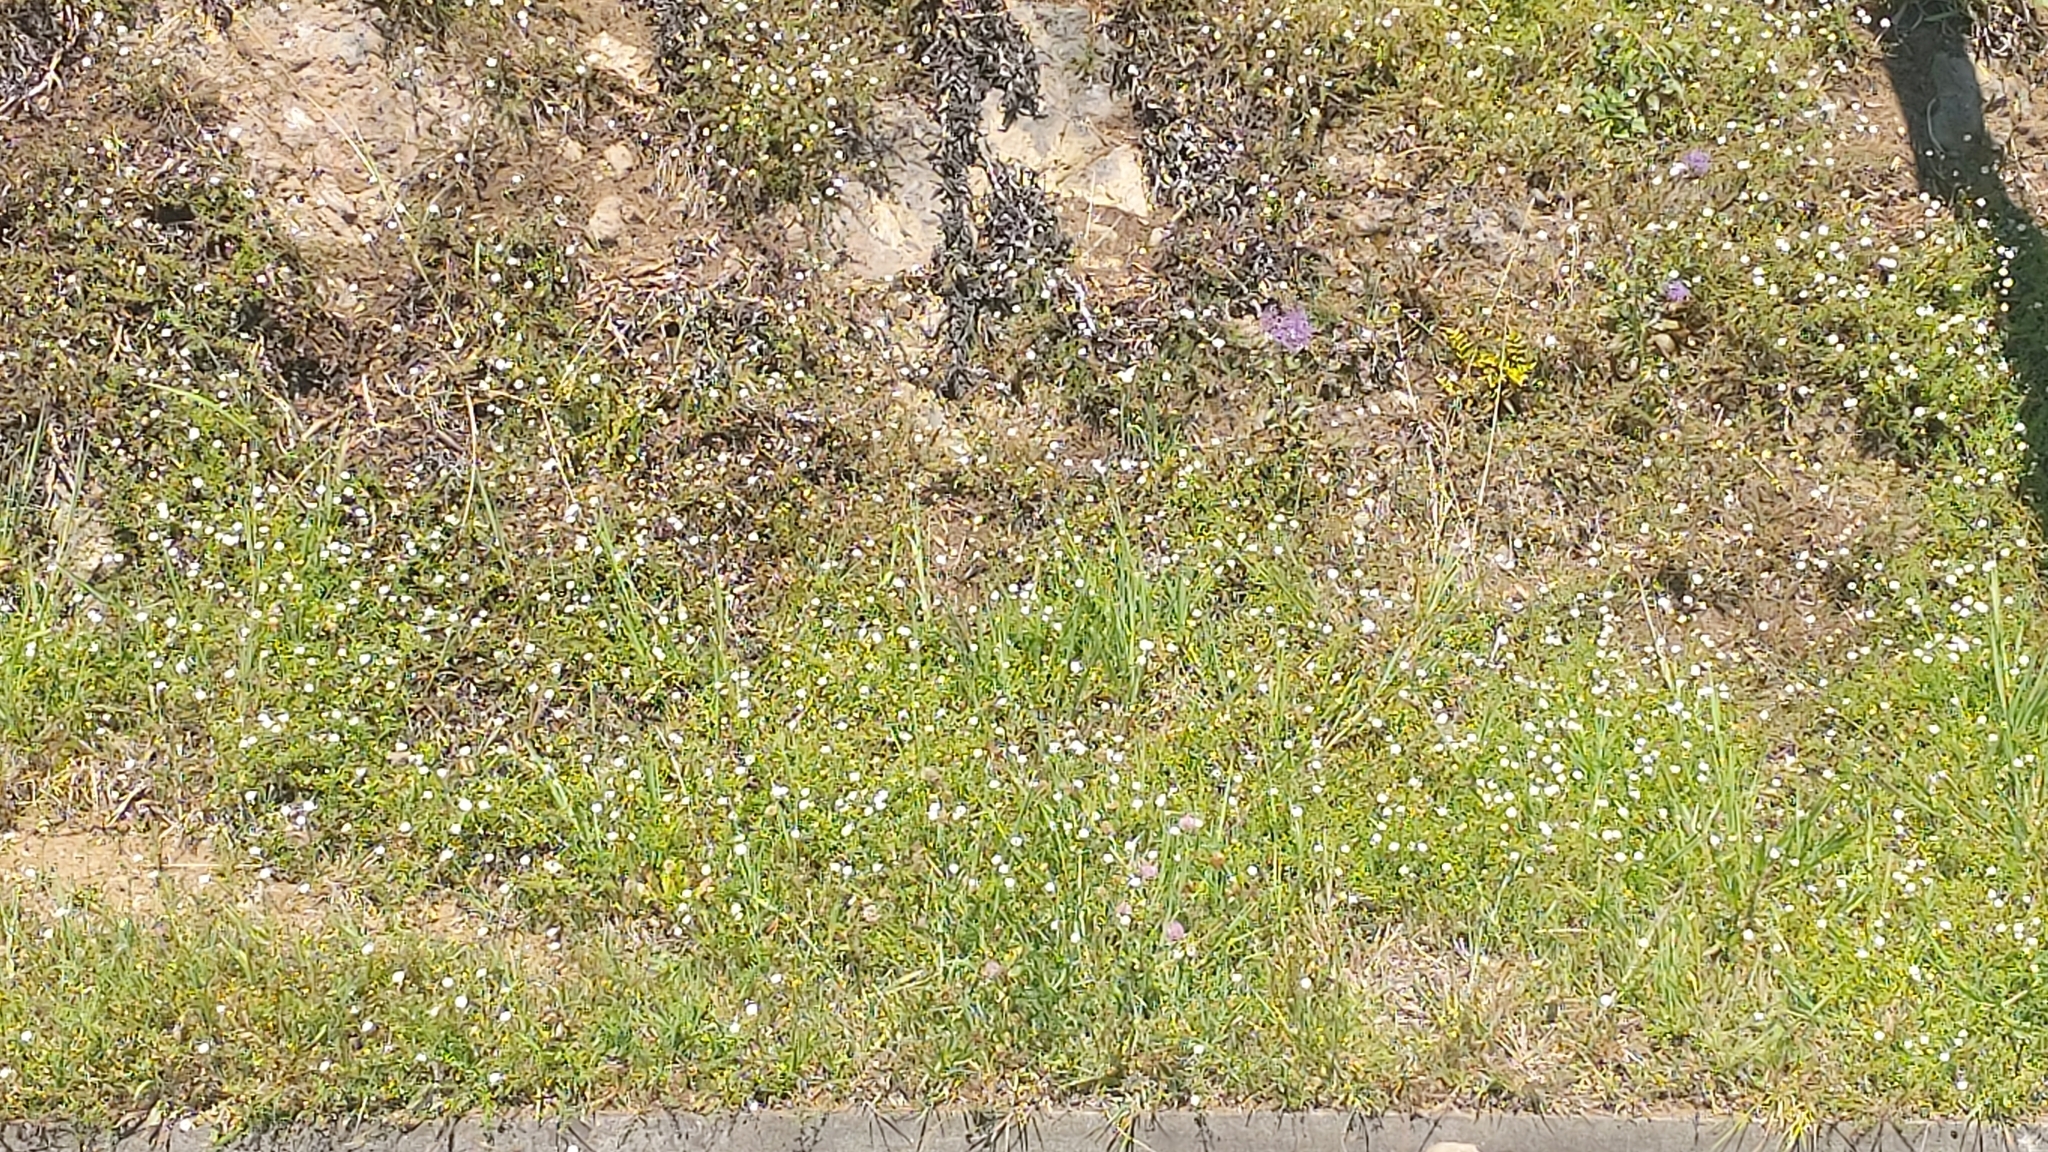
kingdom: Plantae
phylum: Tracheophyta
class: Magnoliopsida
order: Asterales
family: Asteraceae
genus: Erigeron
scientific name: Erigeron karvinskianus
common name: Mexican fleabane
